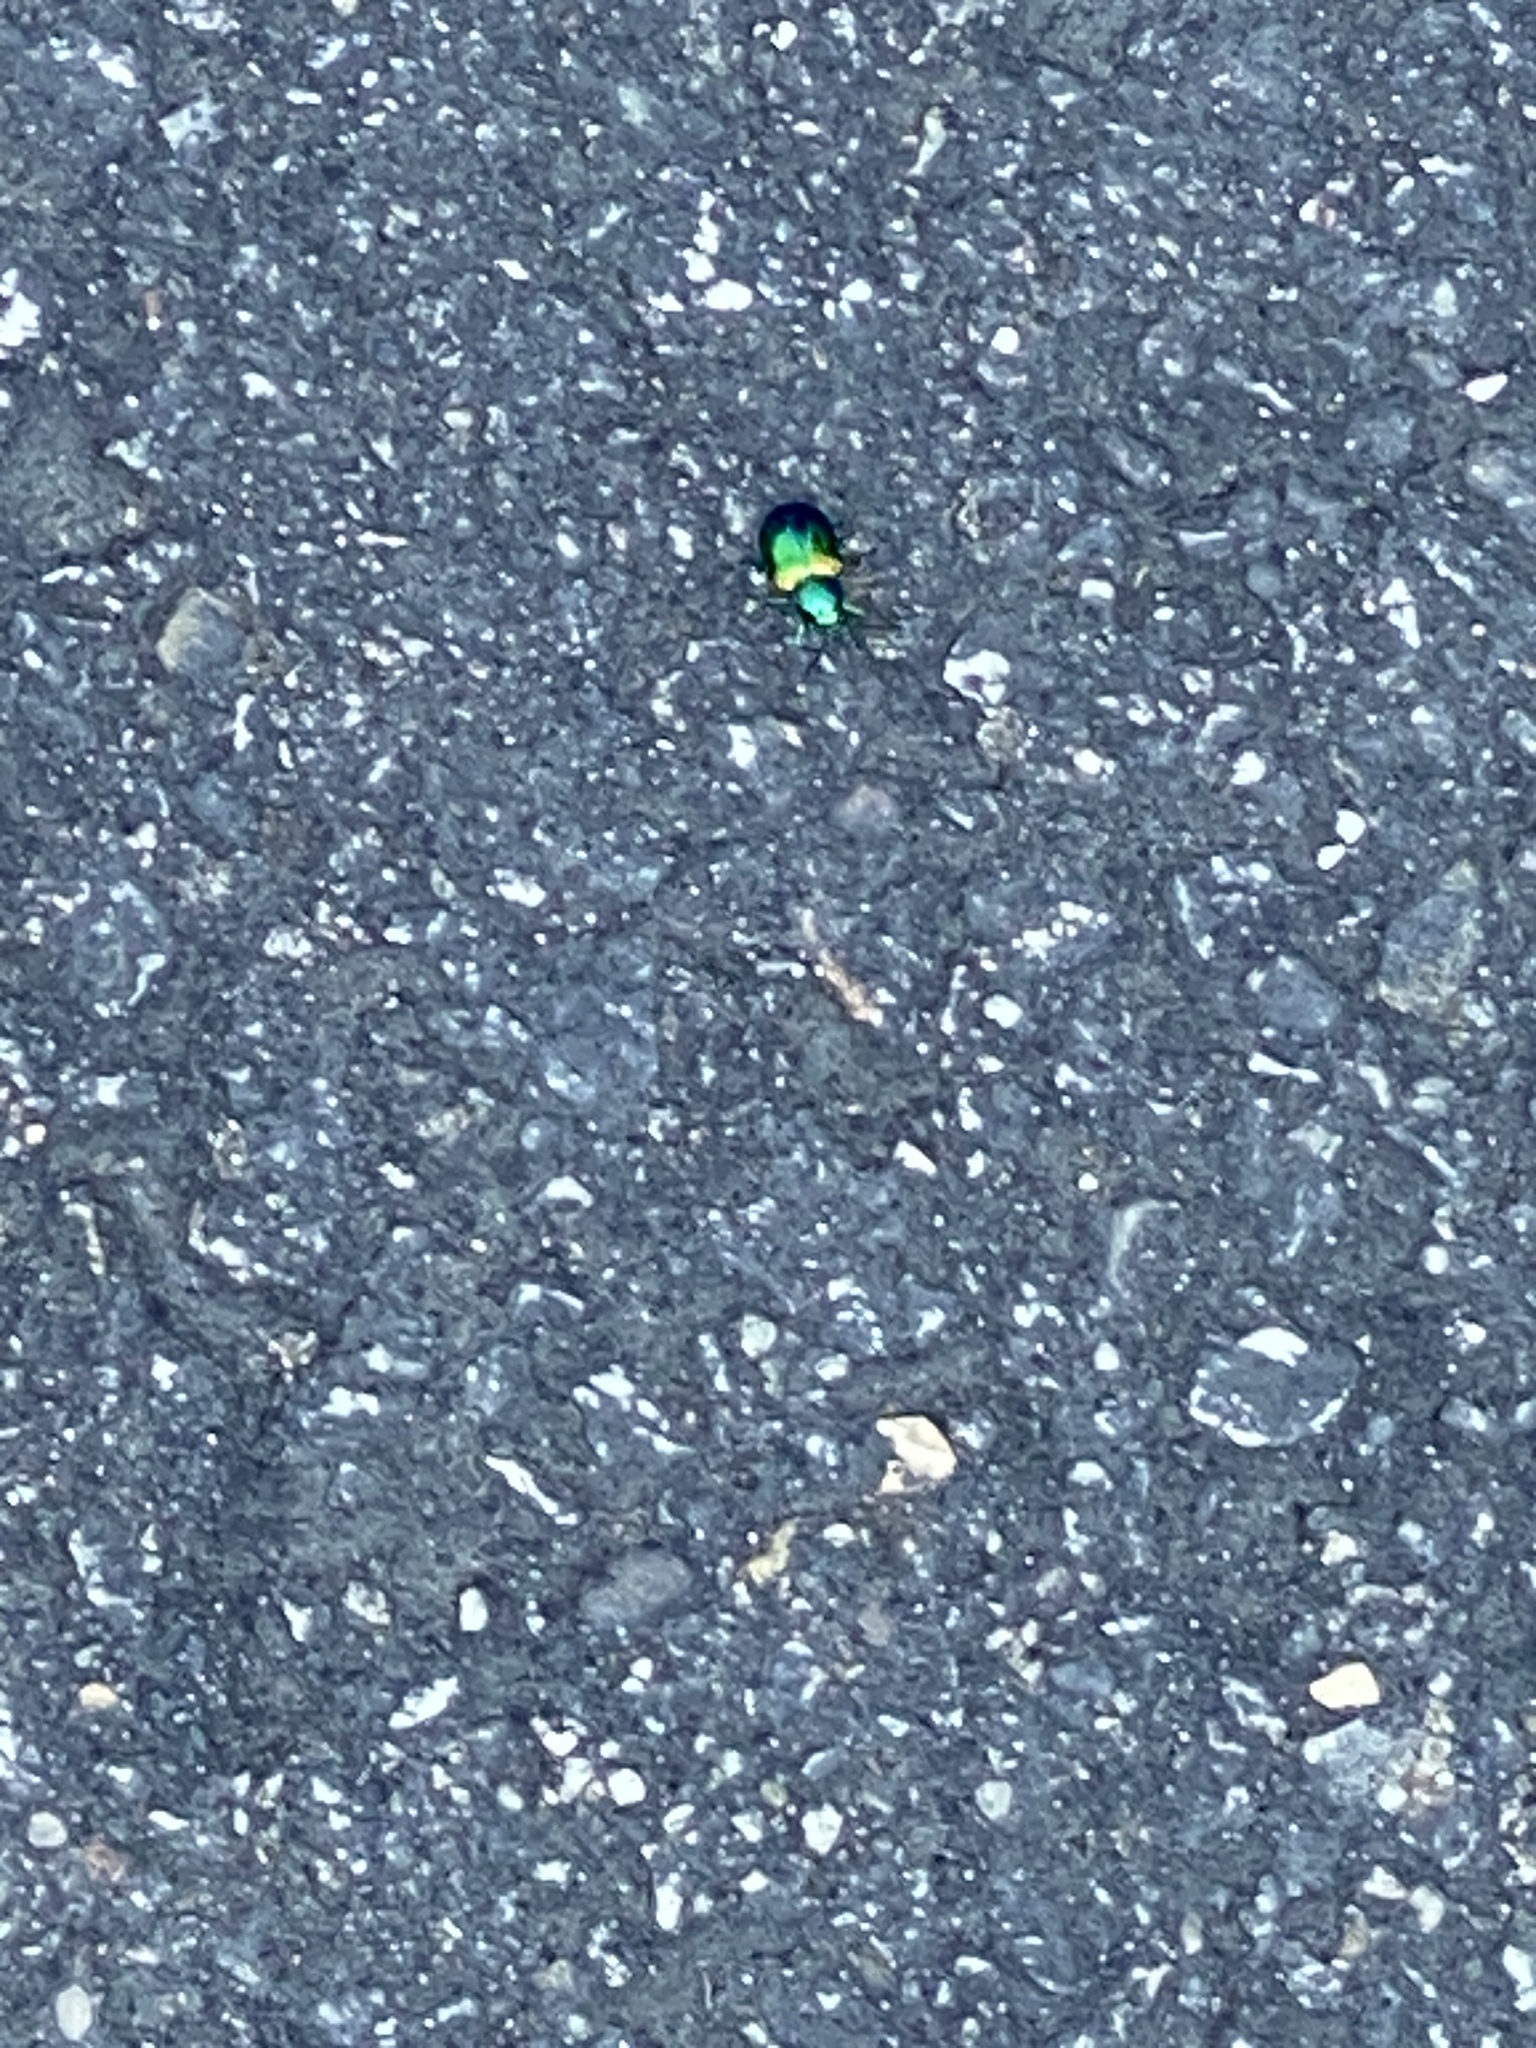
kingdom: Animalia
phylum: Arthropoda
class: Insecta
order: Coleoptera
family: Chrysomelidae
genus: Chrysochus
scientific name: Chrysochus auratus
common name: Dogbane leaf beetle
